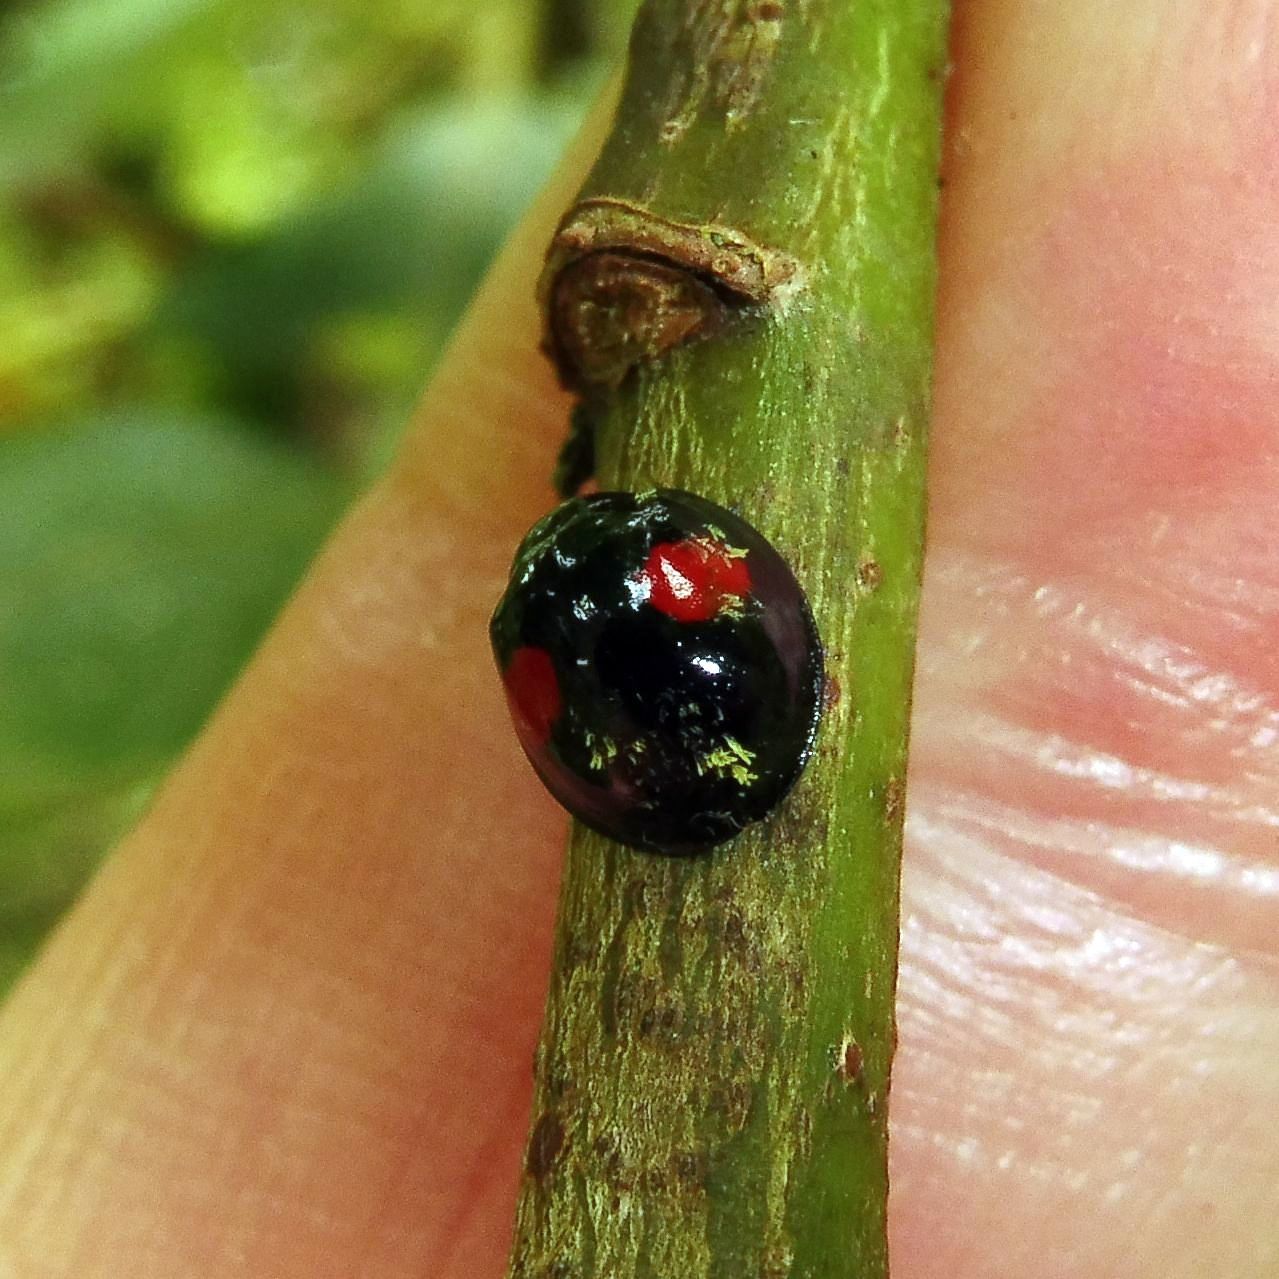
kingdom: Animalia
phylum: Arthropoda
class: Insecta
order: Coleoptera
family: Coccinellidae
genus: Chilocorus
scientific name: Chilocorus renipustulatus
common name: Kidney-spot ladybird
